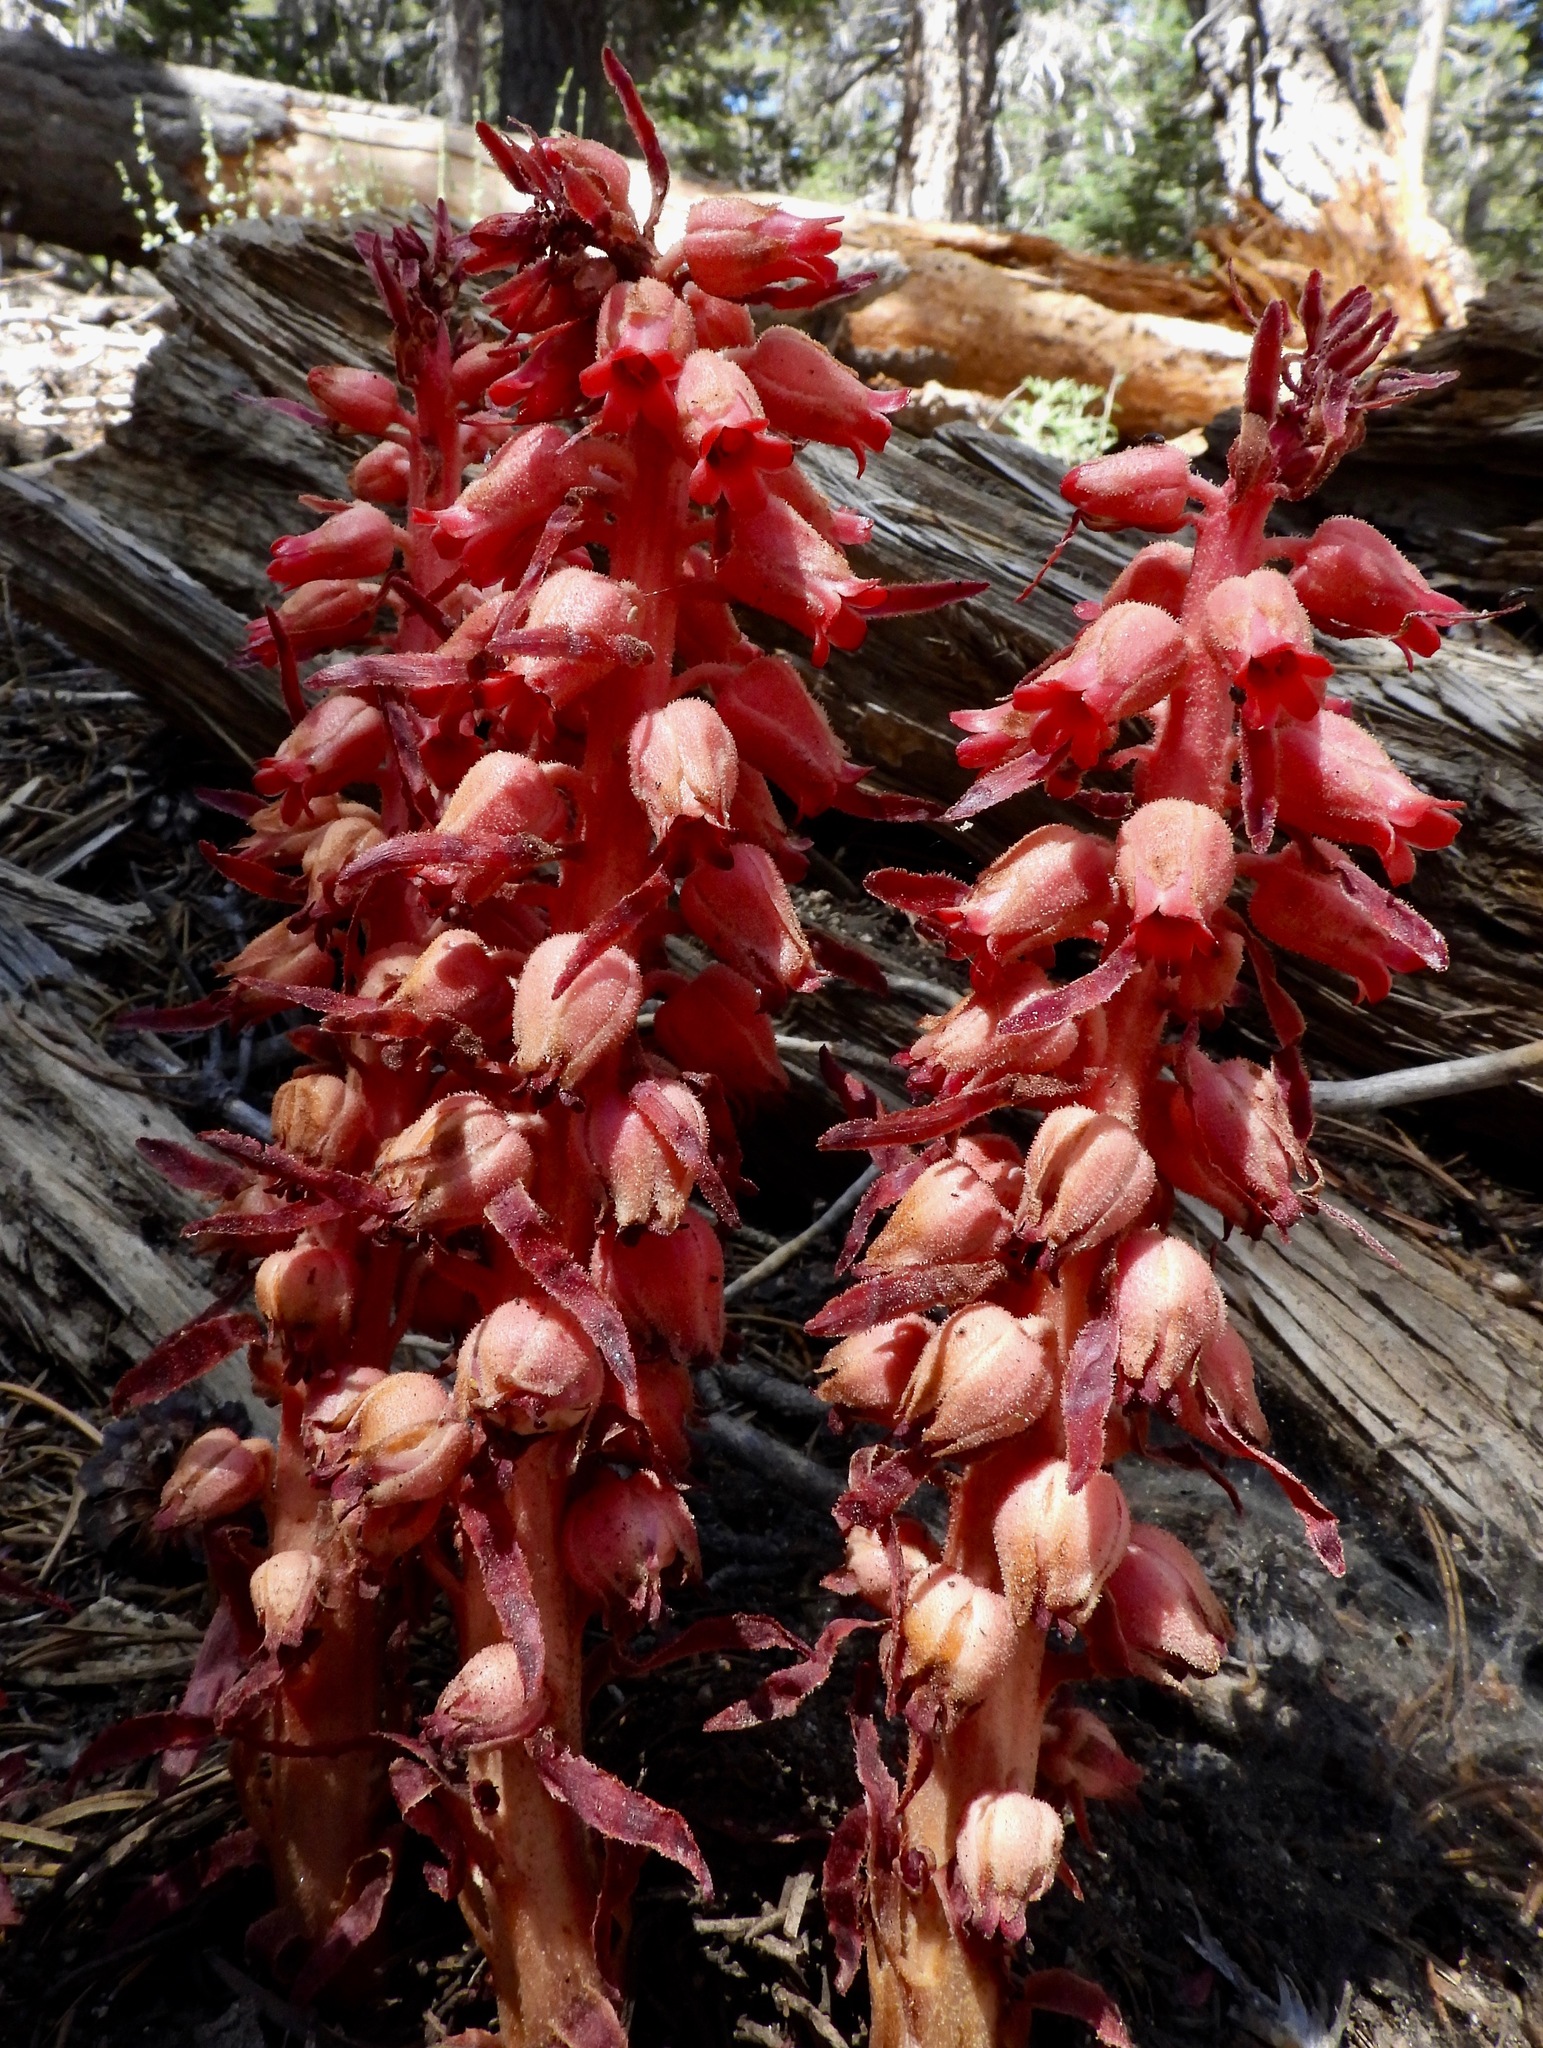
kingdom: Plantae
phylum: Tracheophyta
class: Magnoliopsida
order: Ericales
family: Ericaceae
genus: Sarcodes
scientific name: Sarcodes sanguinea
